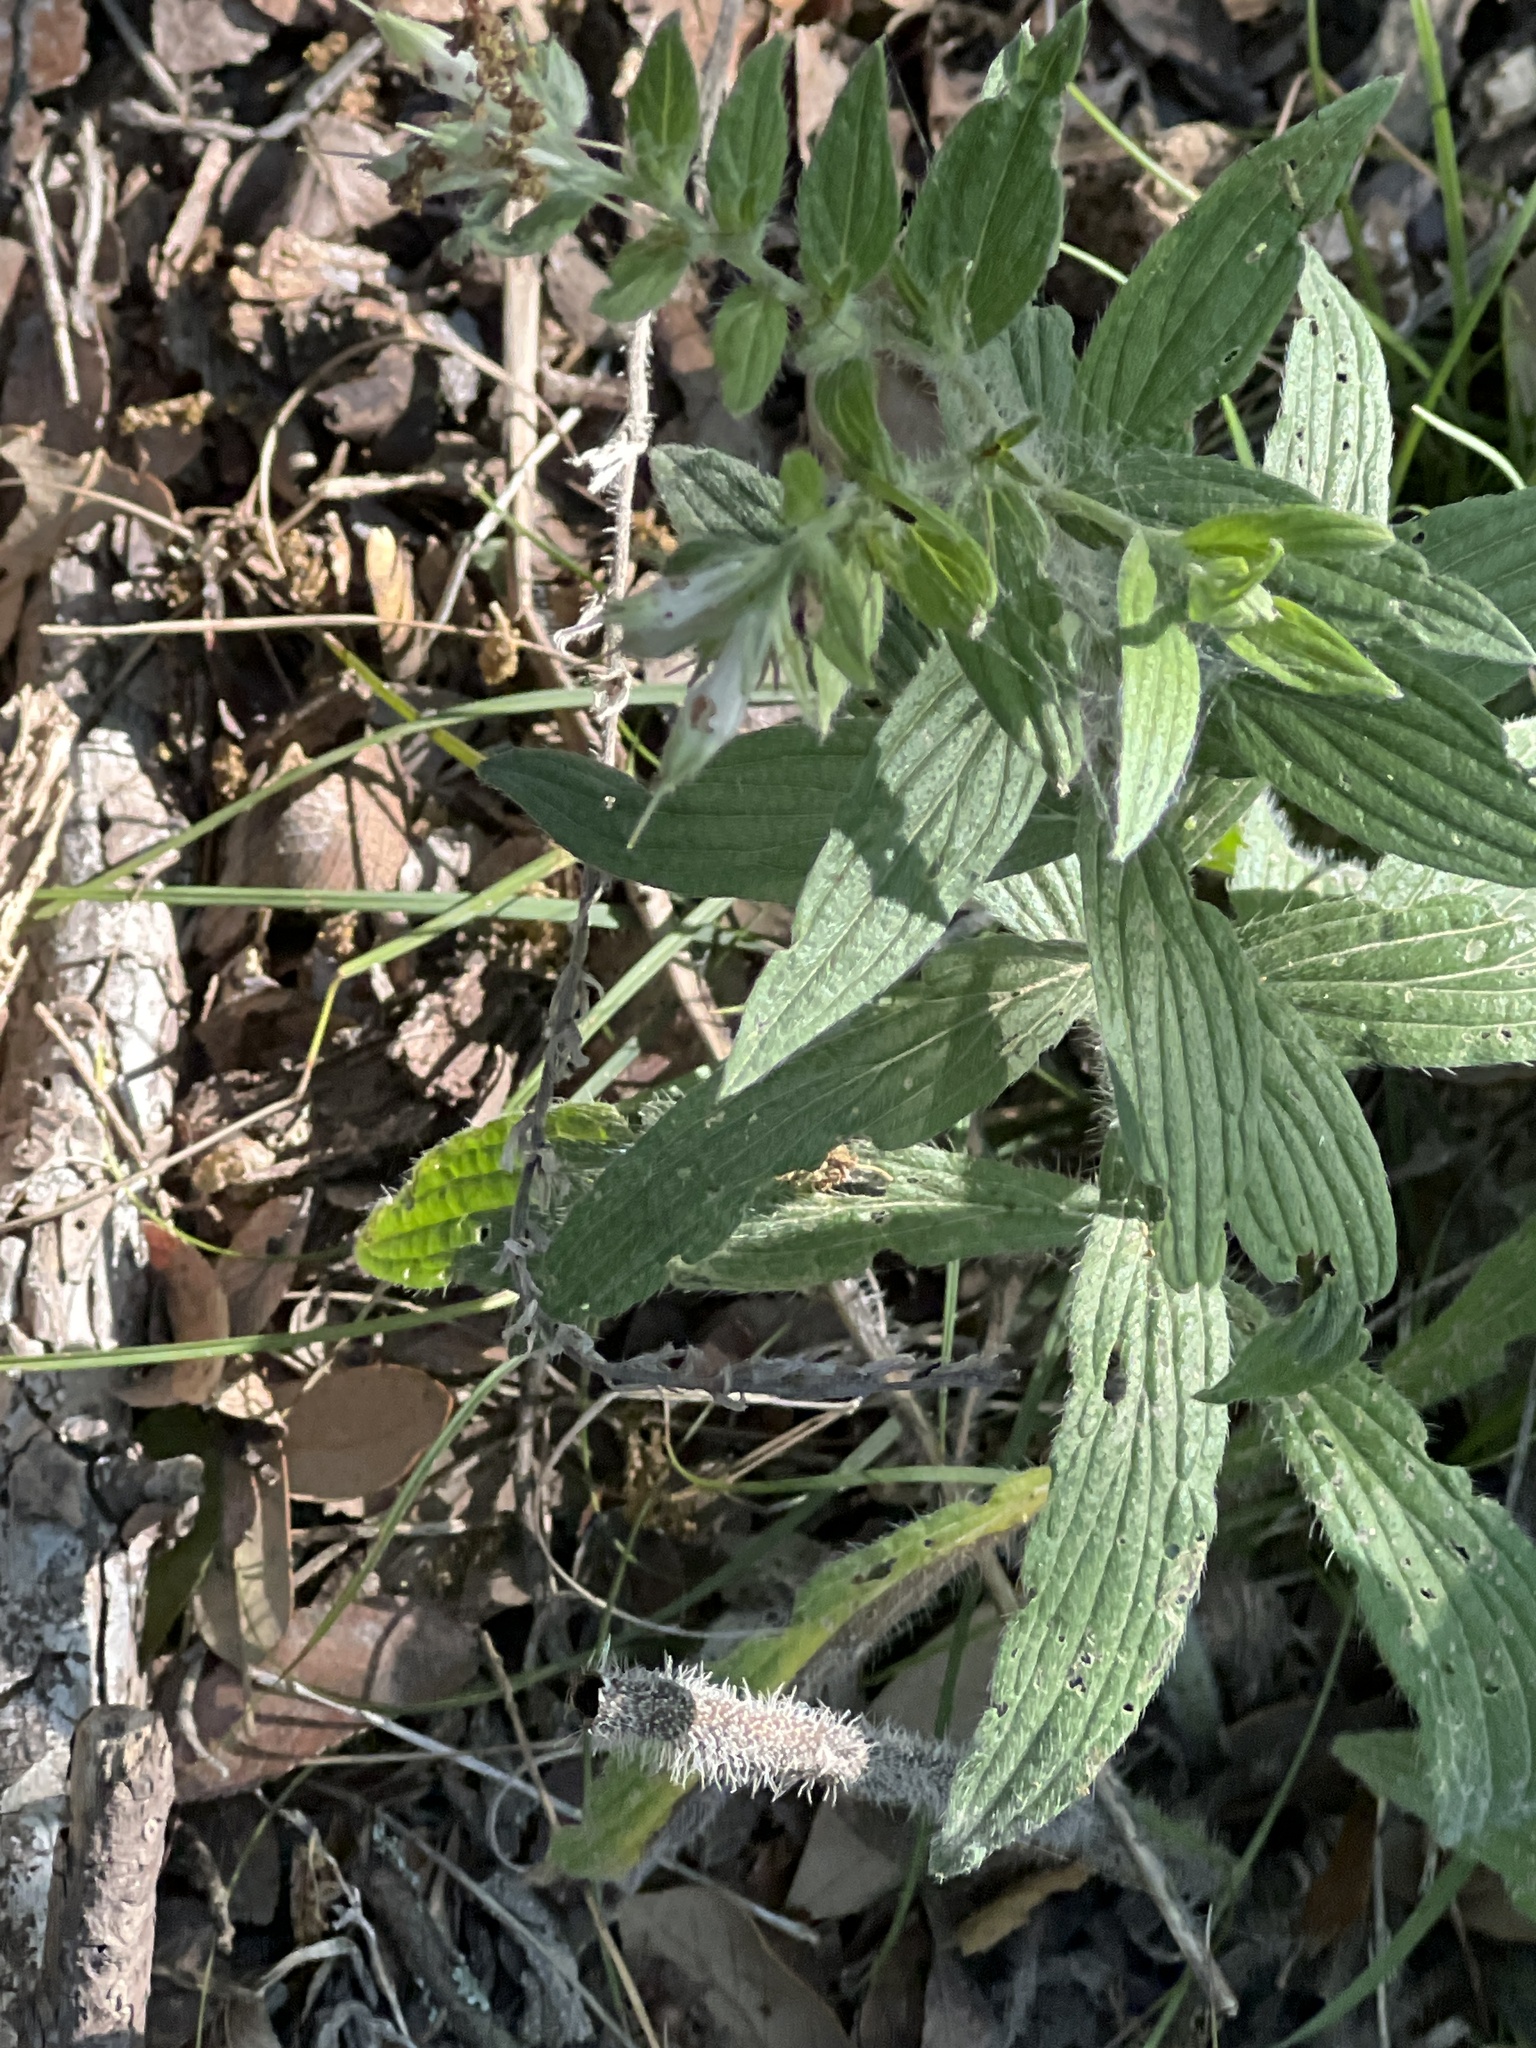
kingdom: Plantae
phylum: Tracheophyta
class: Magnoliopsida
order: Boraginales
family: Boraginaceae
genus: Lithospermum
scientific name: Lithospermum caroliniense
